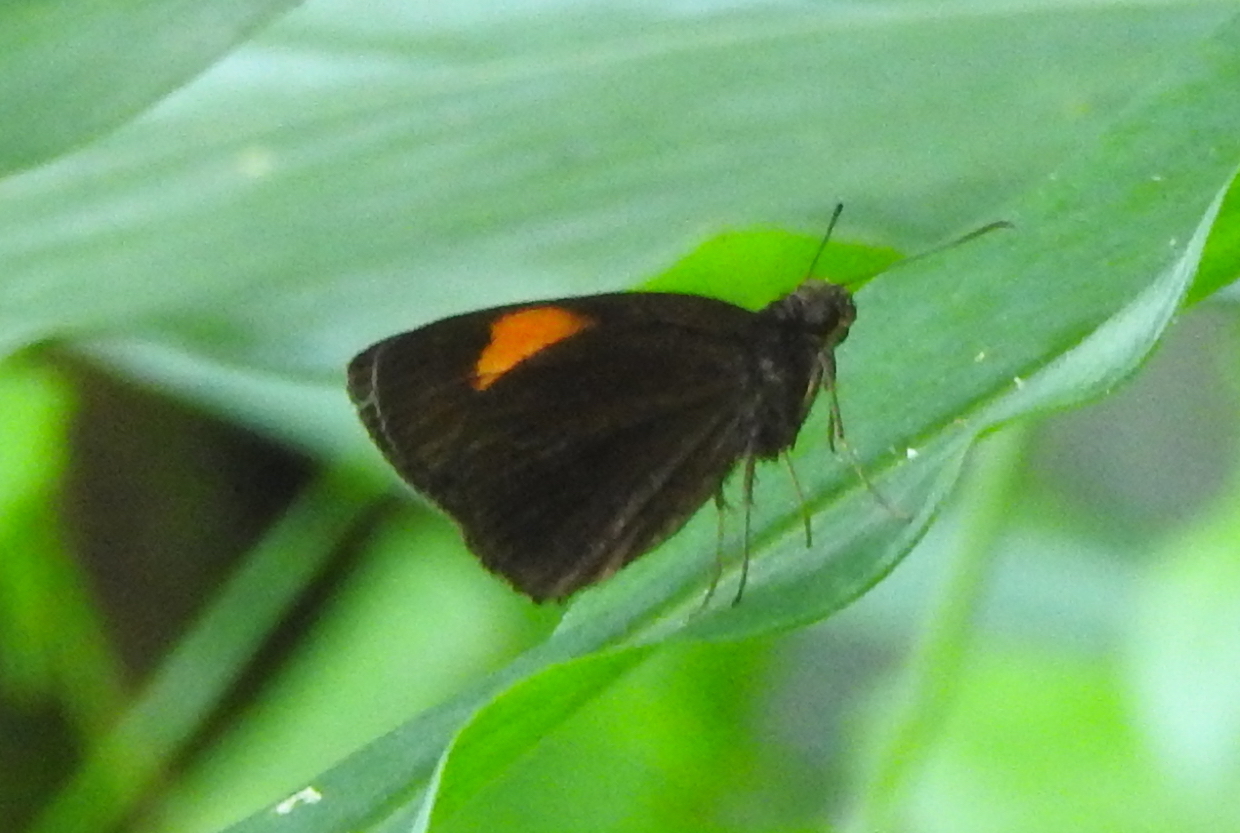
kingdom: Animalia
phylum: Arthropoda
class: Insecta
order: Lepidoptera
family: Hesperiidae
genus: Koruthaialos
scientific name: Koruthaialos sindu
